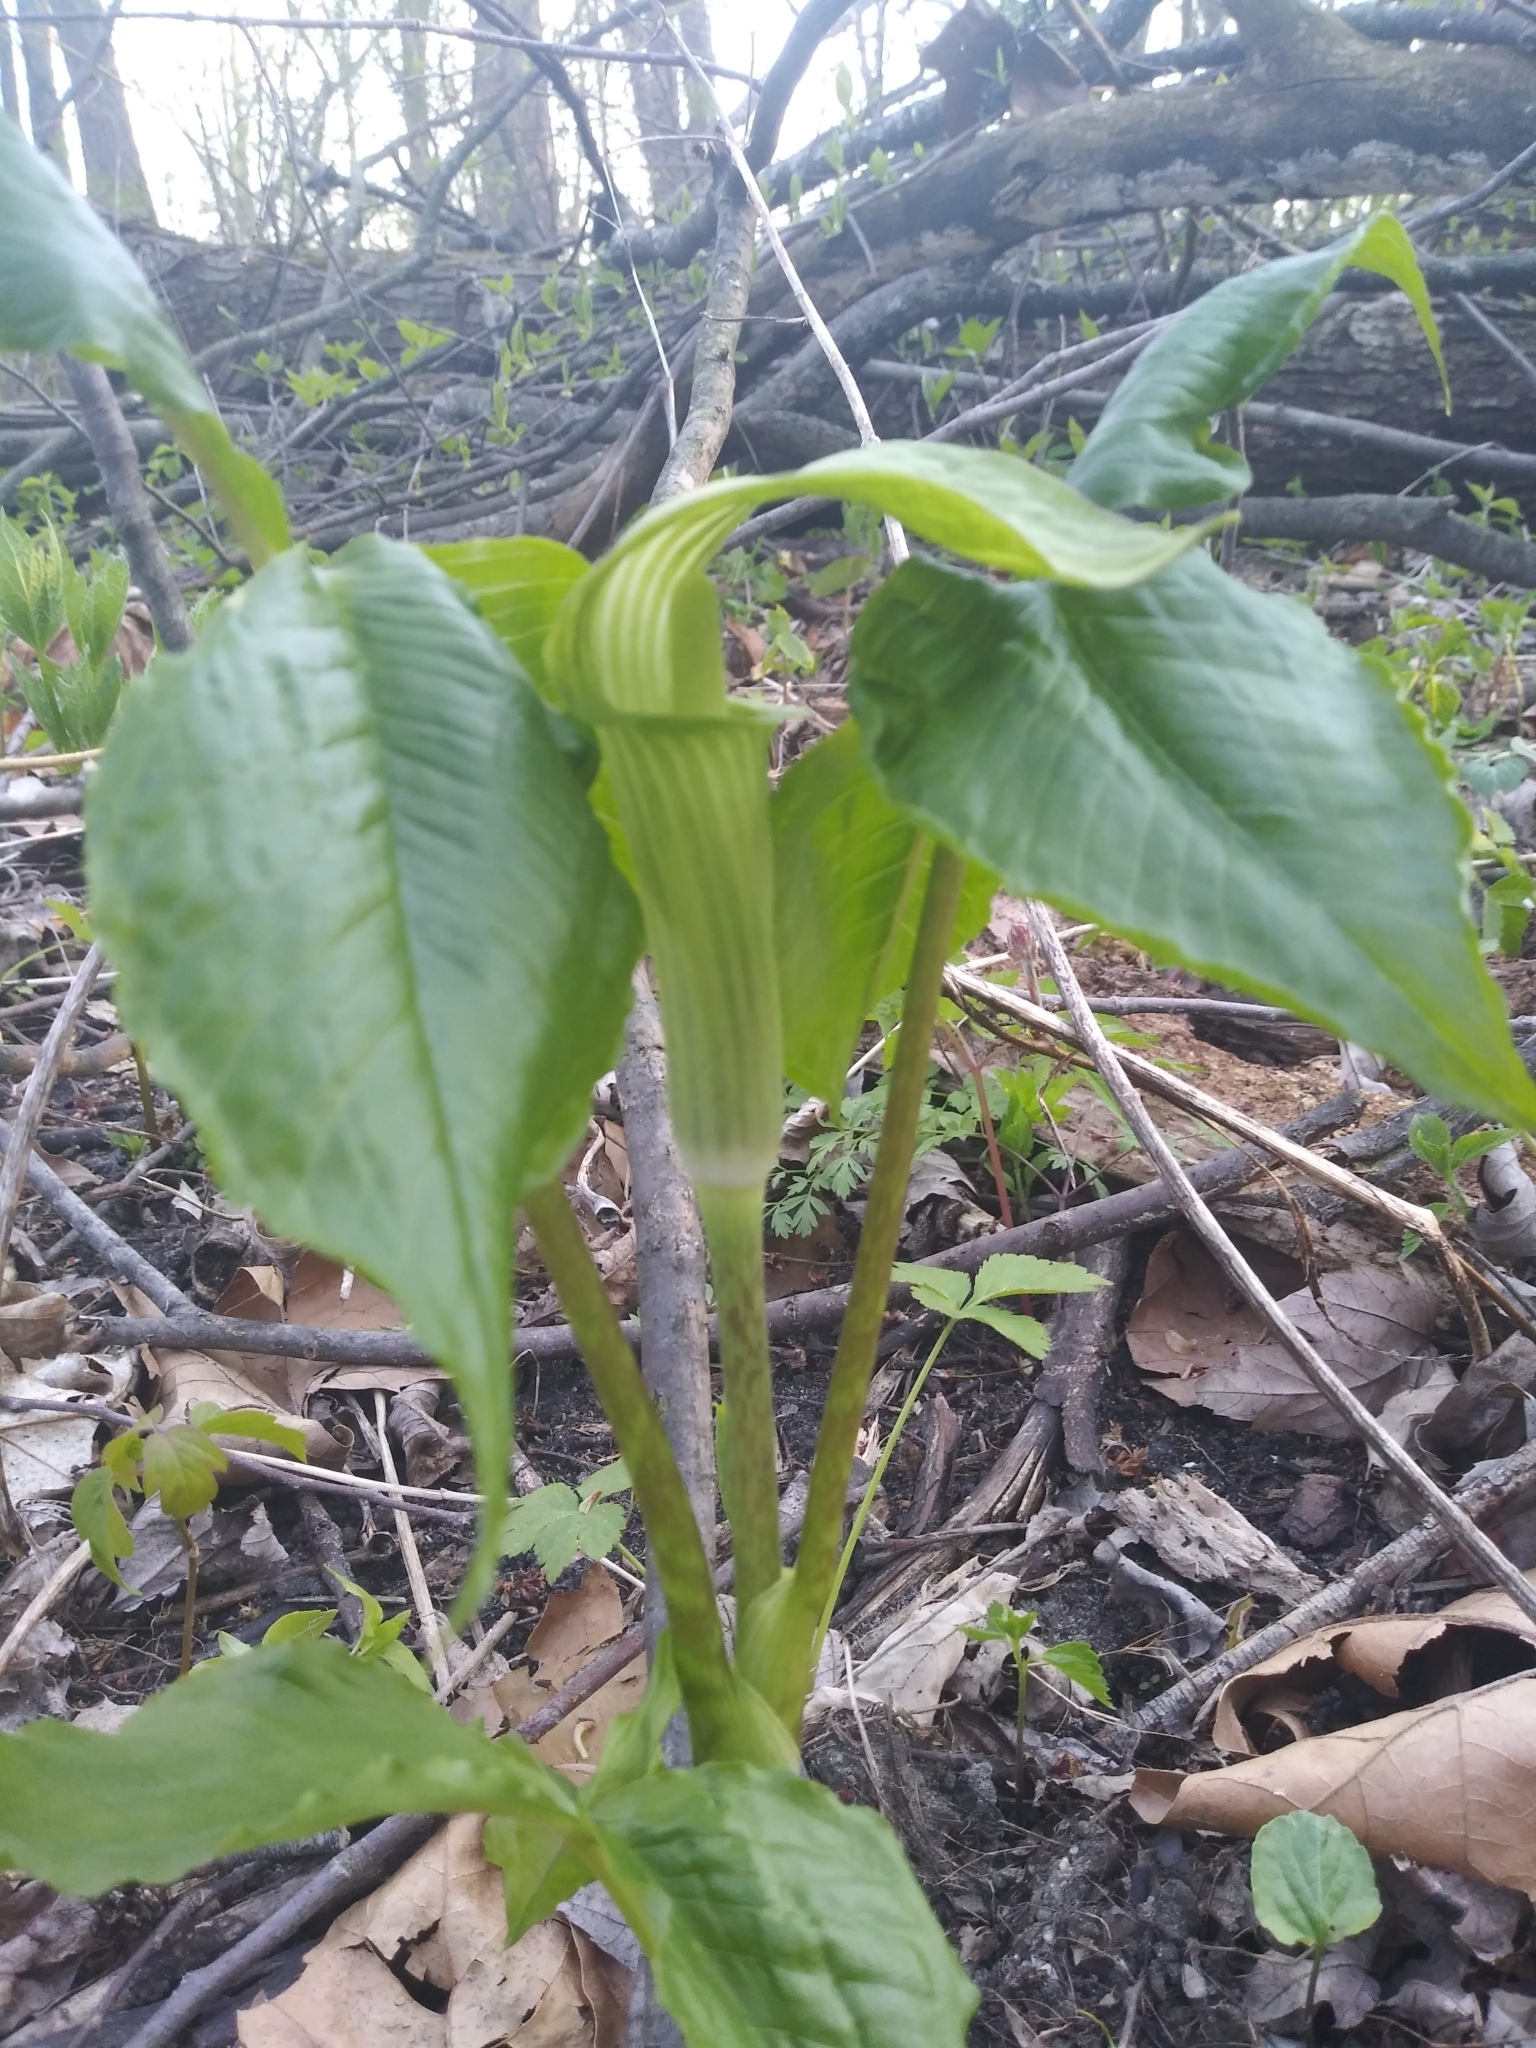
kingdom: Plantae
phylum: Tracheophyta
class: Liliopsida
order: Alismatales
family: Araceae
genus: Arisaema
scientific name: Arisaema triphyllum
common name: Jack-in-the-pulpit
